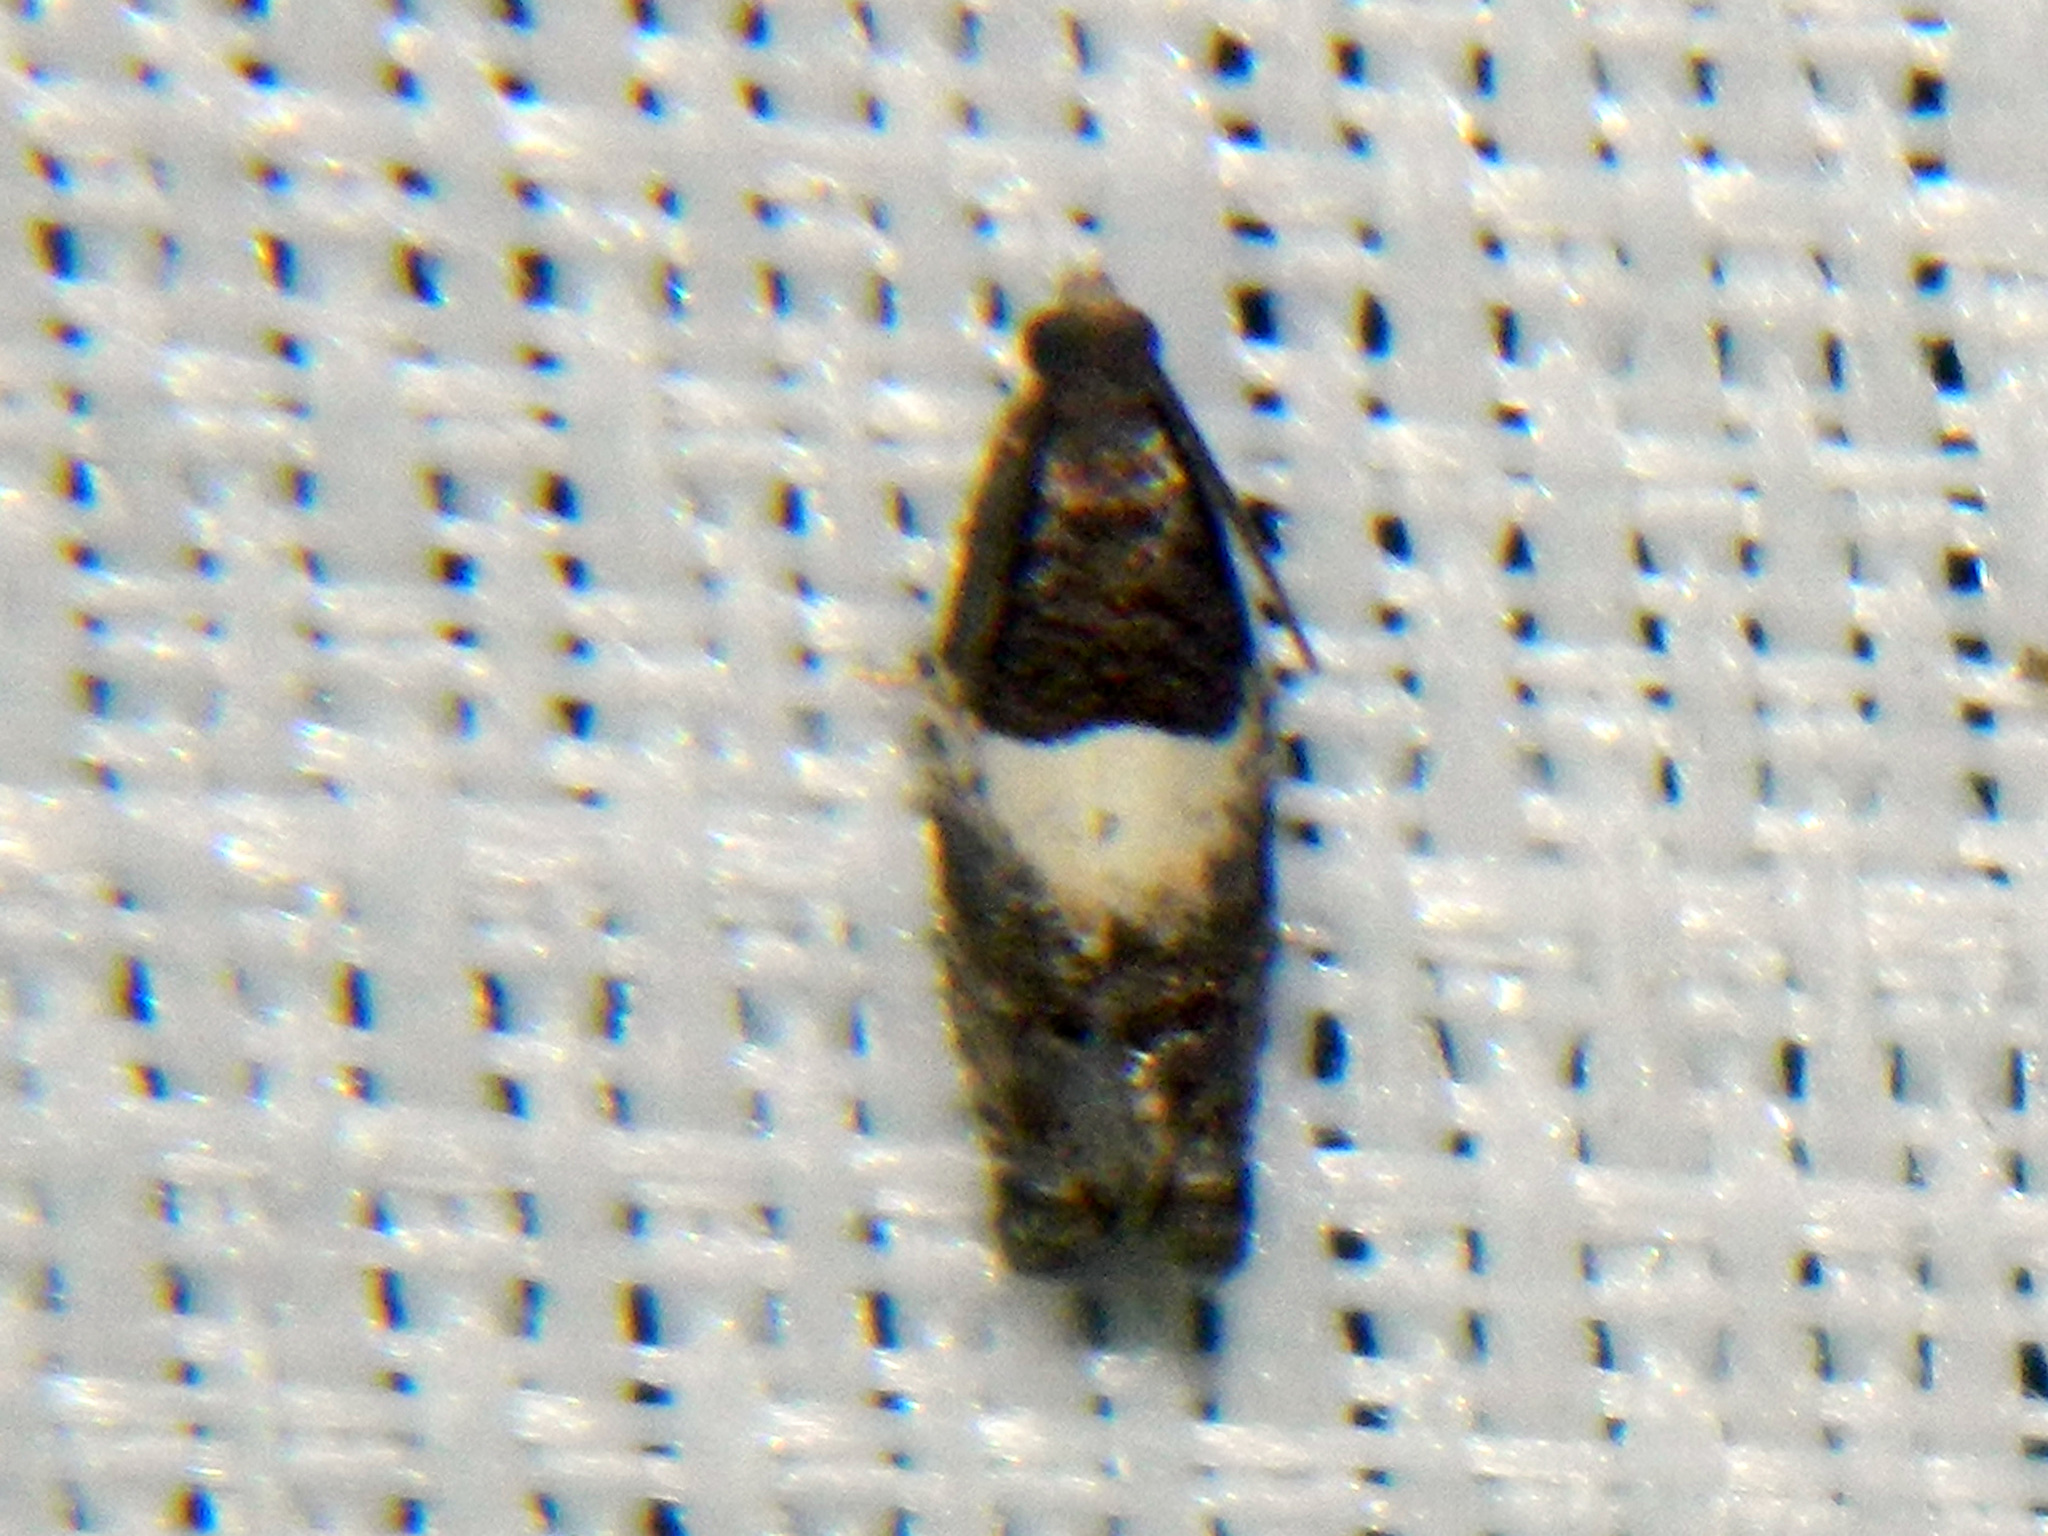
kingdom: Animalia
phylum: Arthropoda
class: Insecta
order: Lepidoptera
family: Tortricidae
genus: Gypsonoma
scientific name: Gypsonoma substitutionis
